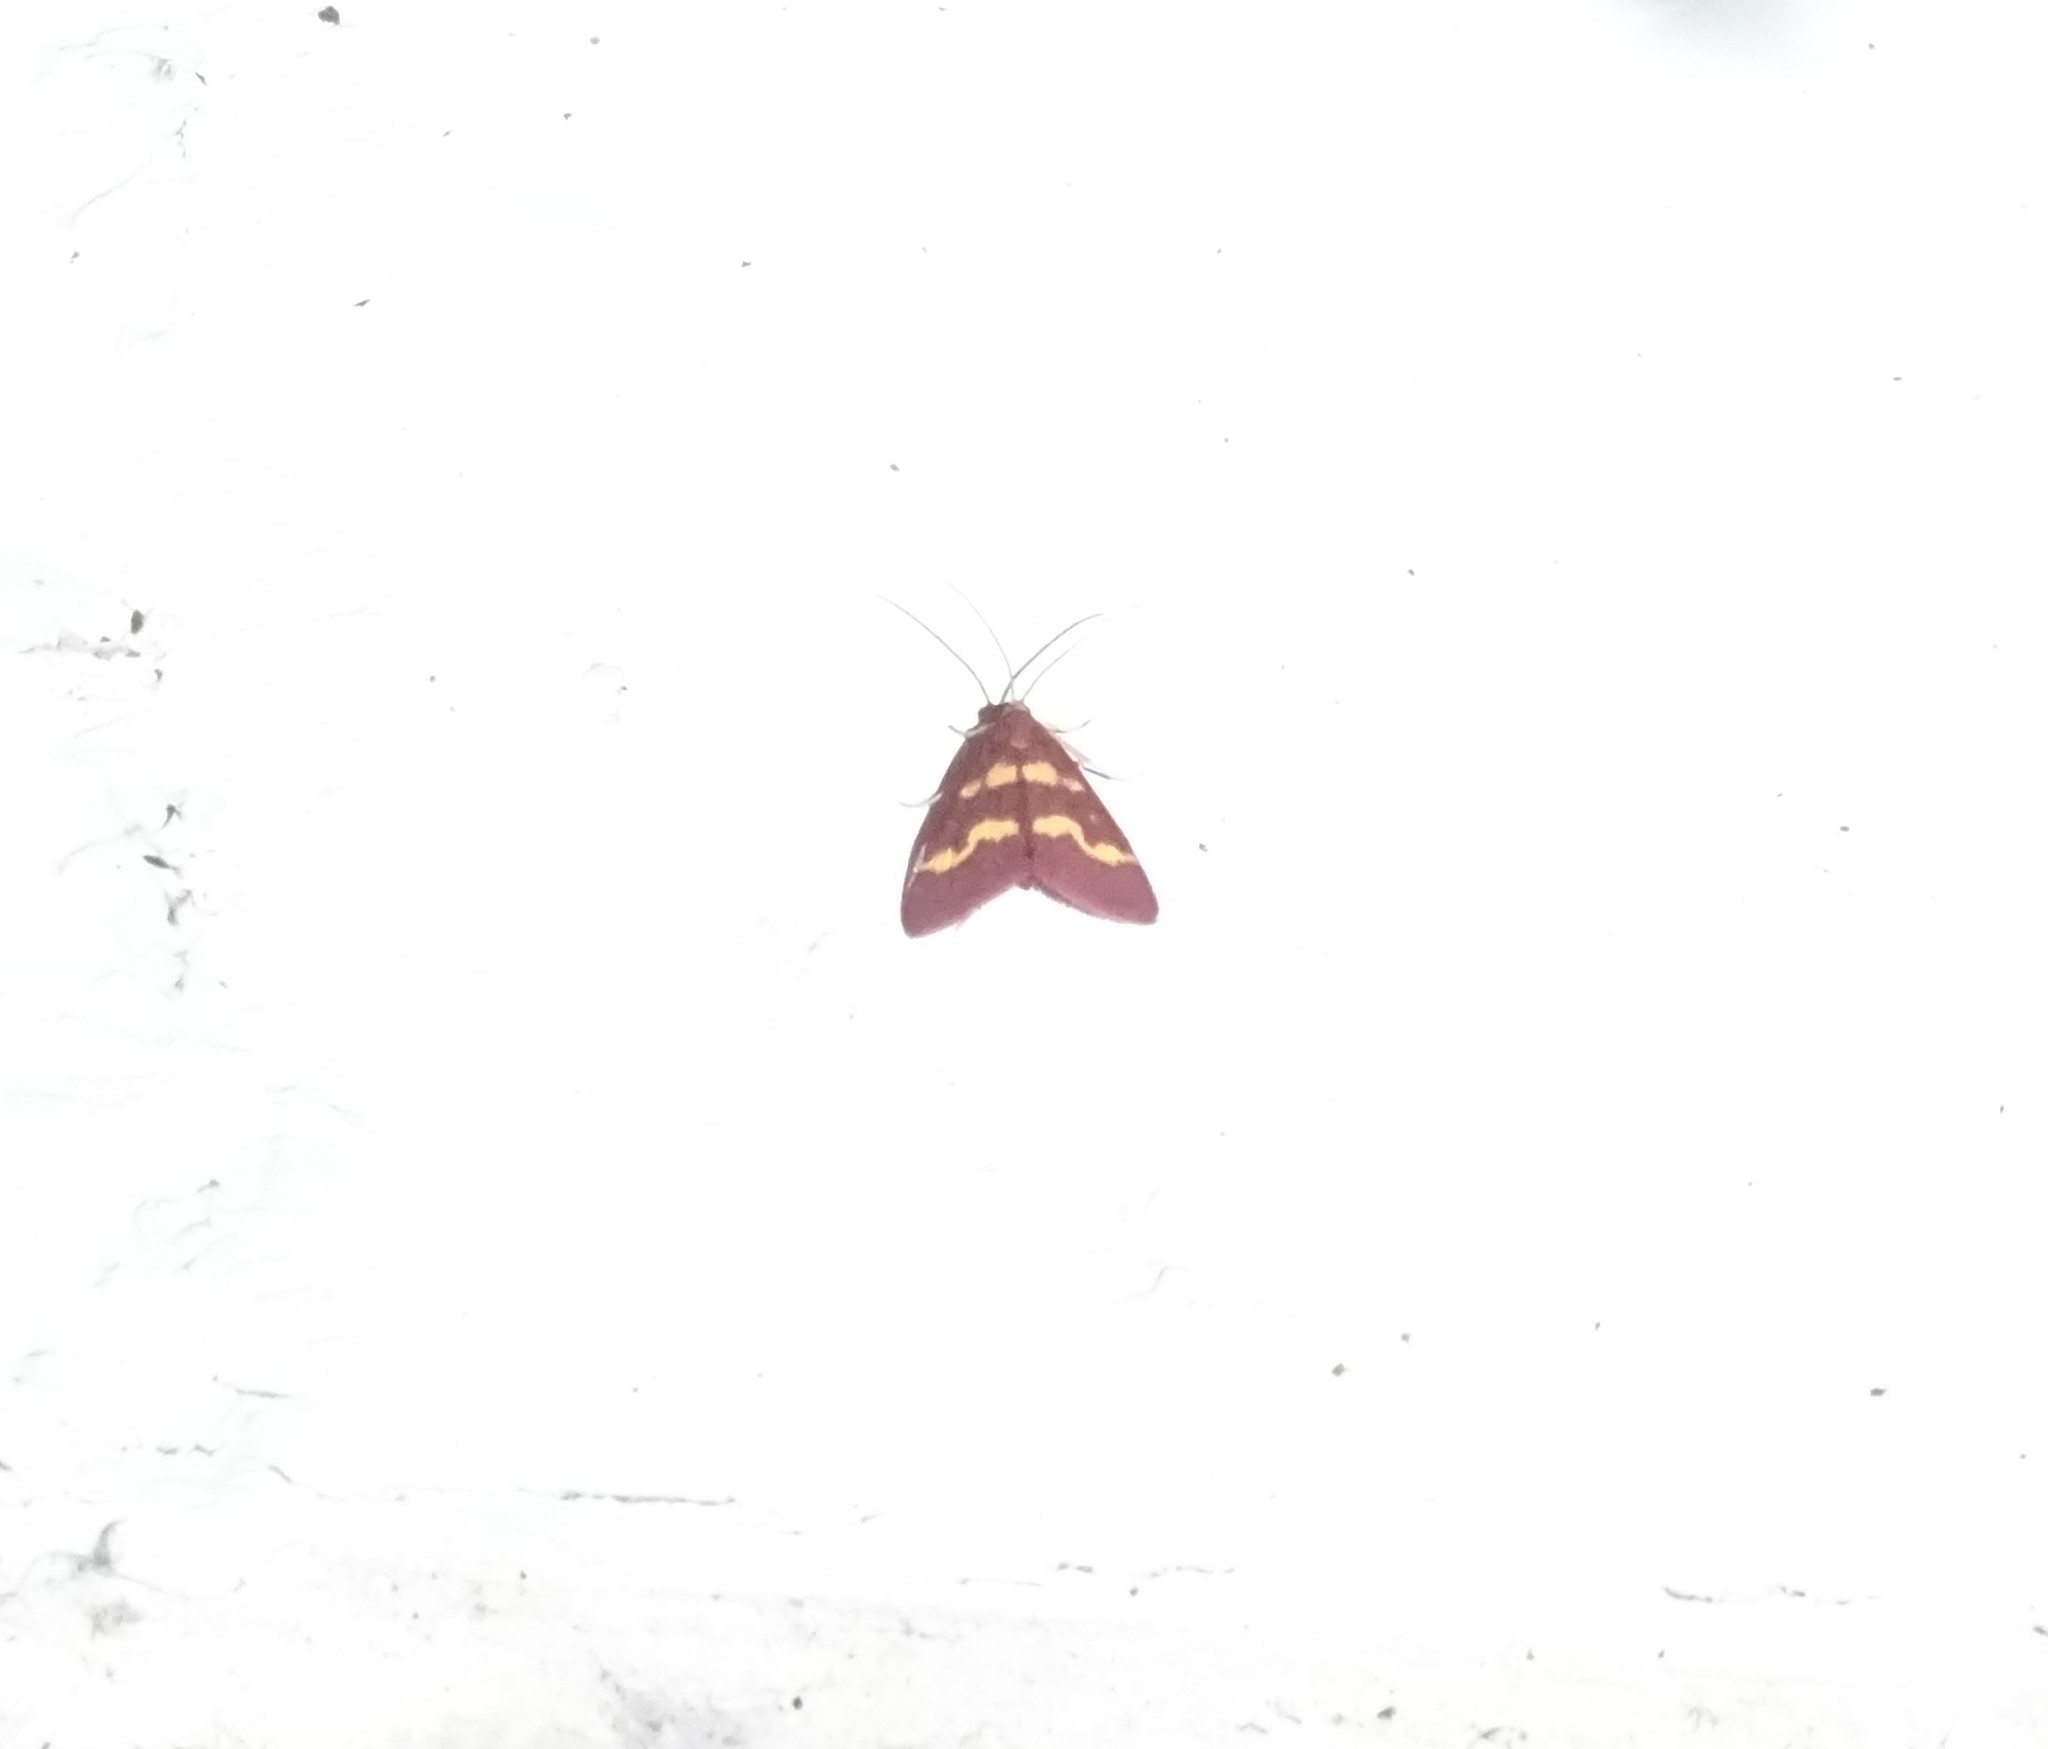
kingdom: Animalia
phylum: Arthropoda
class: Insecta
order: Lepidoptera
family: Crambidae
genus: Pyrausta
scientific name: Pyrausta tyralis
